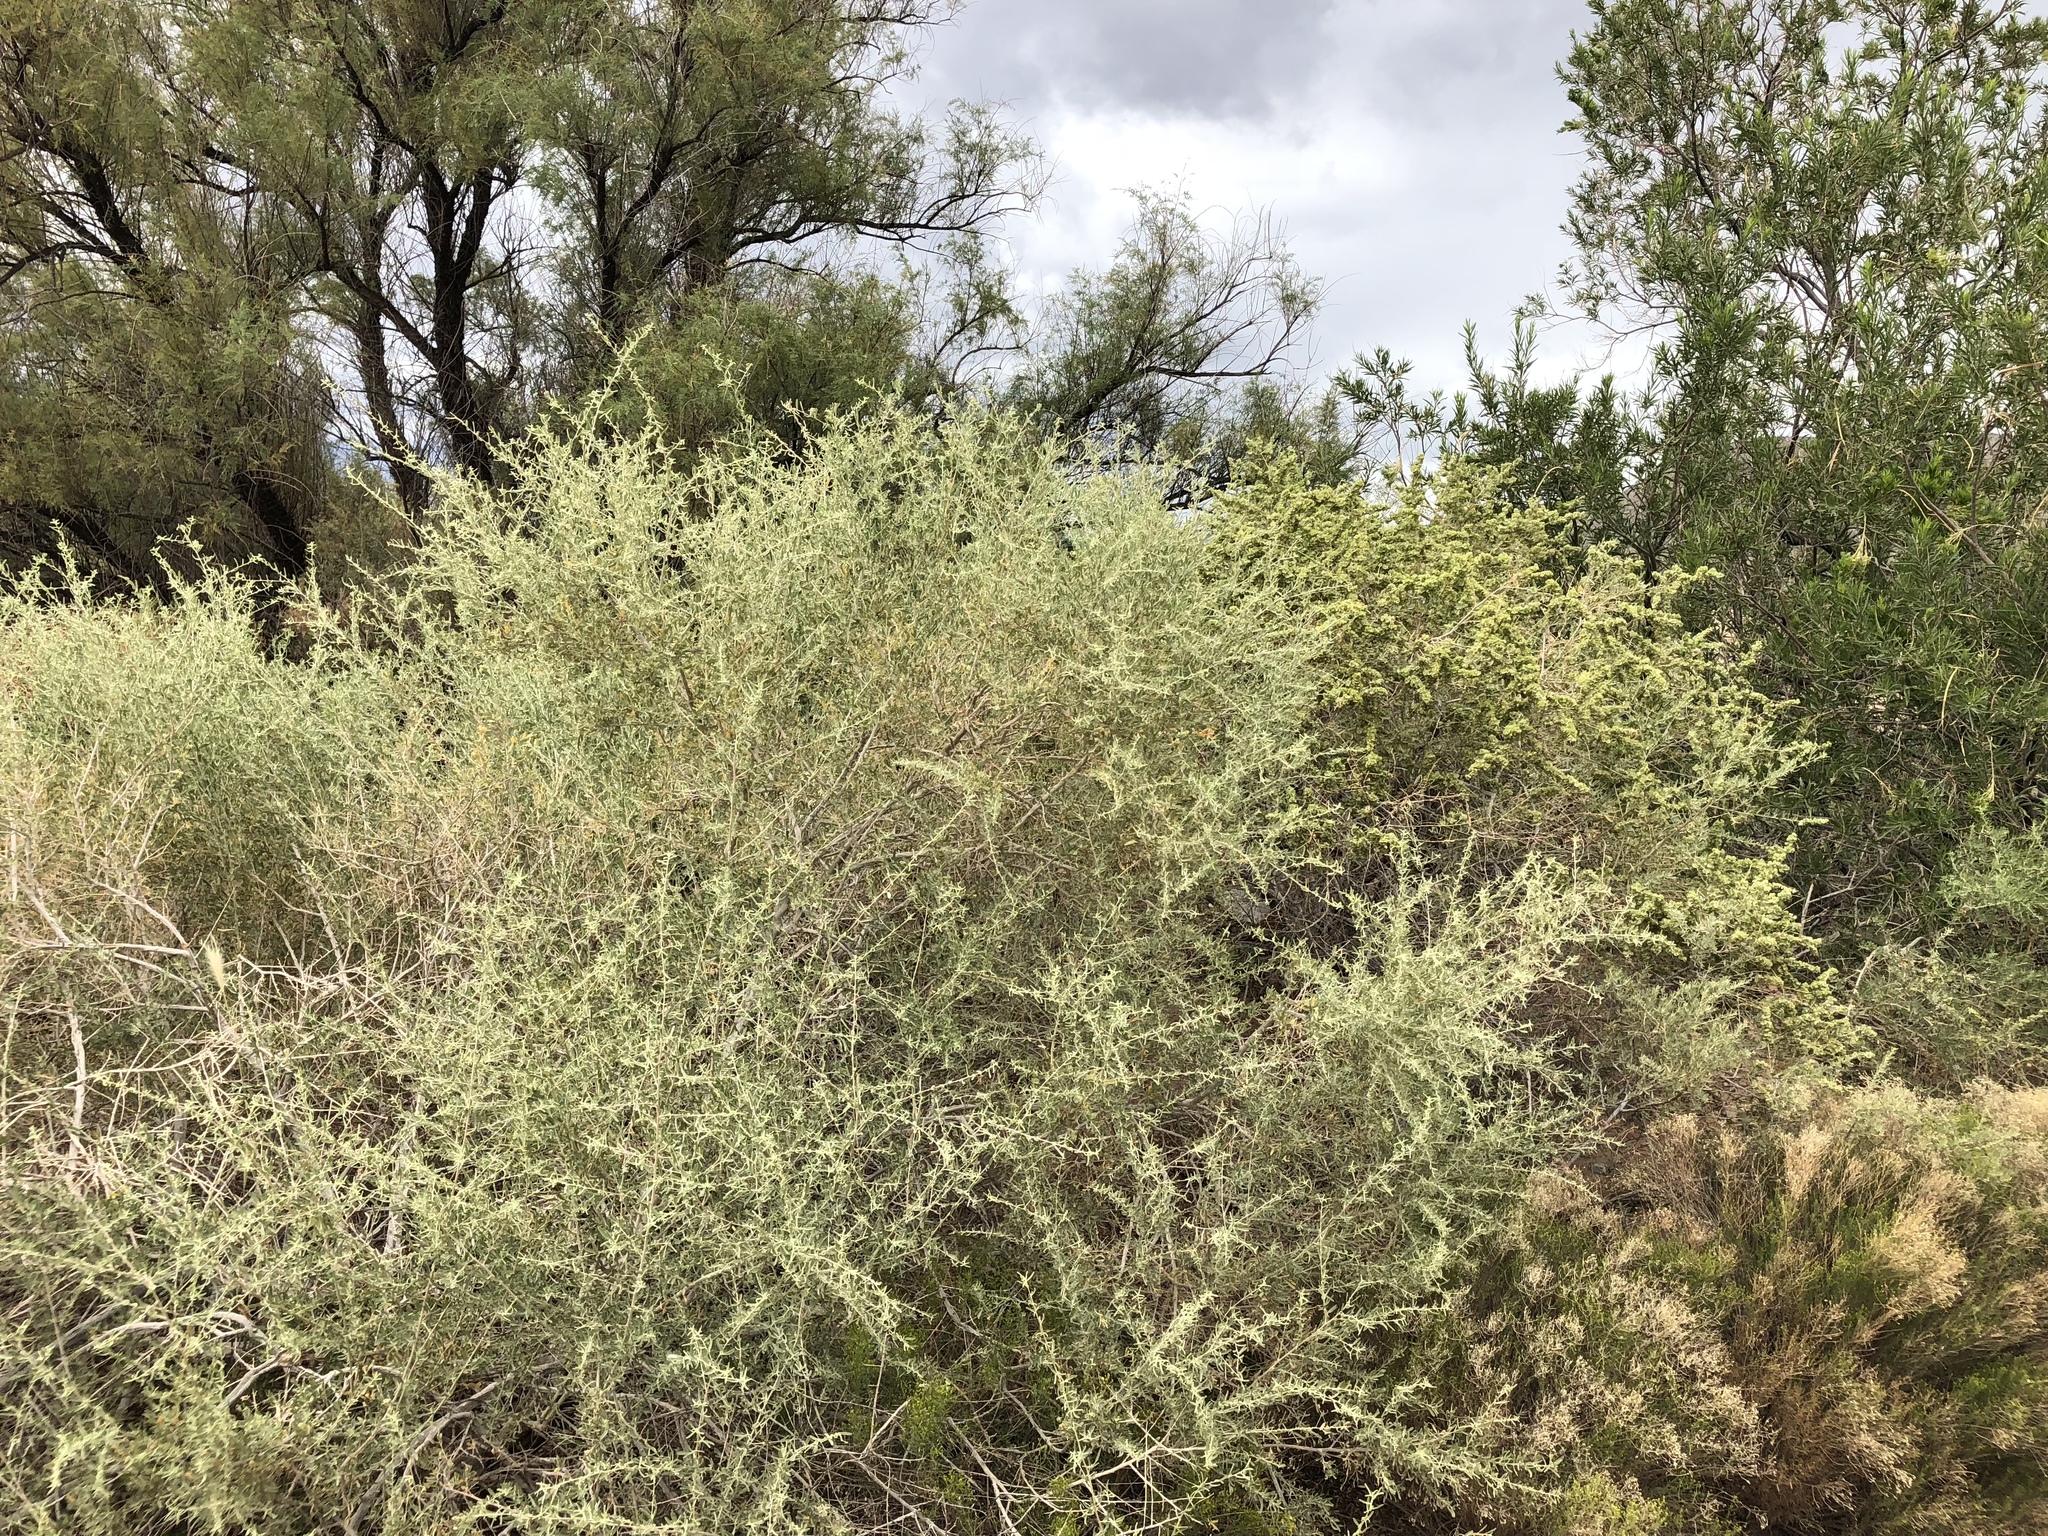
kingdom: Plantae
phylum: Tracheophyta
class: Magnoliopsida
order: Caryophyllales
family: Amaranthaceae
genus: Atriplex
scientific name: Atriplex canescens
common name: Four-wing saltbush
